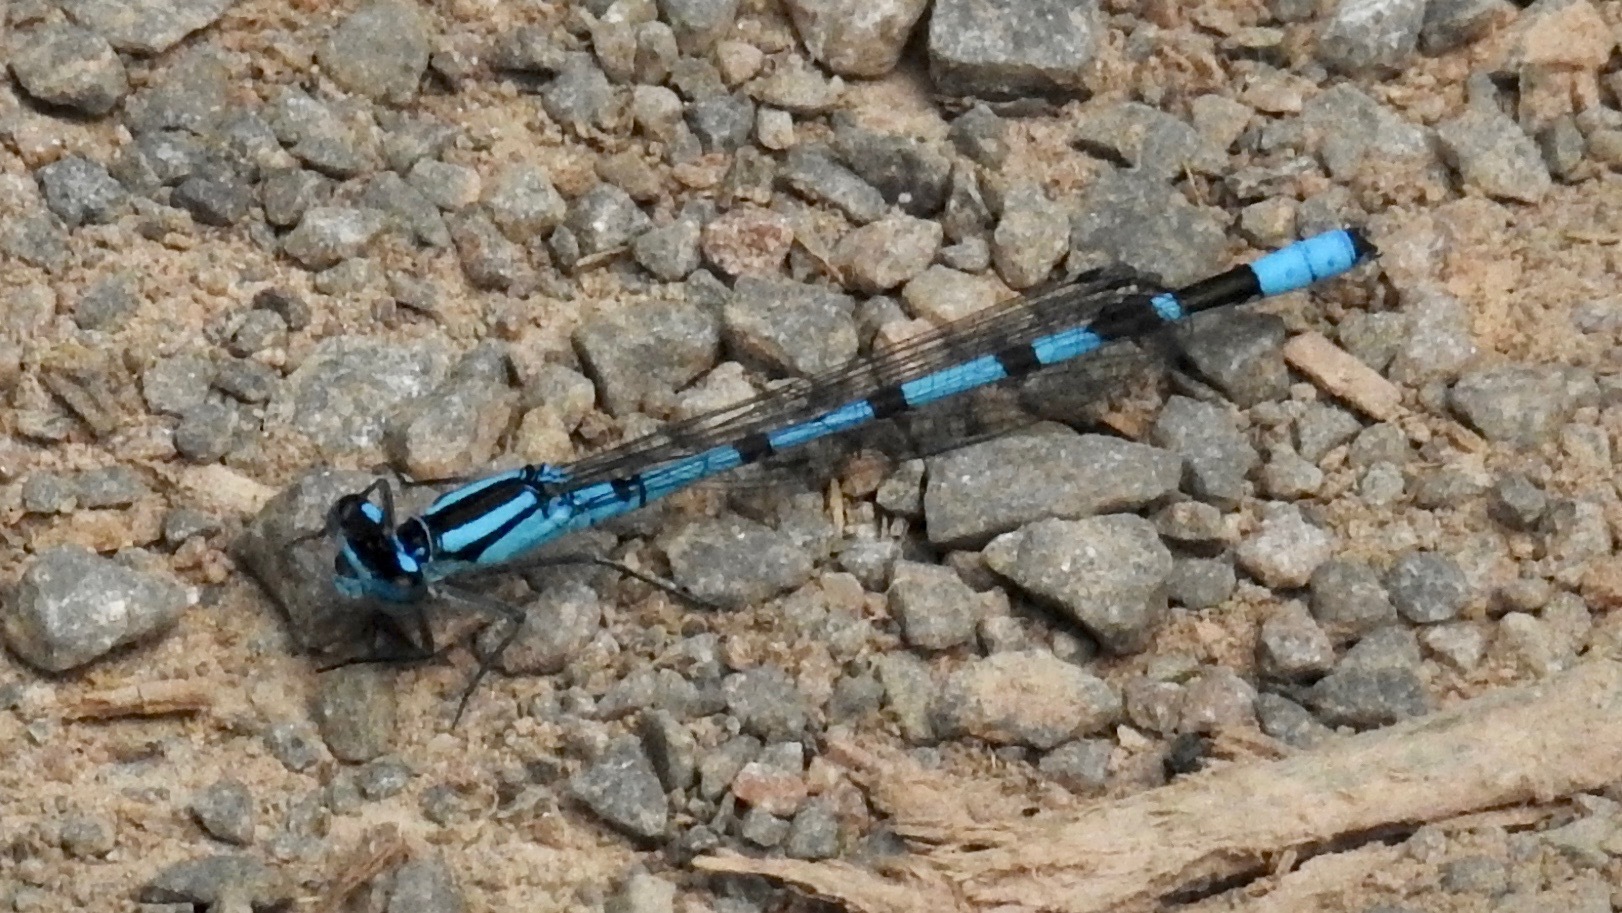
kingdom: Animalia
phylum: Arthropoda
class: Insecta
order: Odonata
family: Coenagrionidae
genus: Enallagma
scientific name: Enallagma cyathigerum
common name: Common blue damselfly
